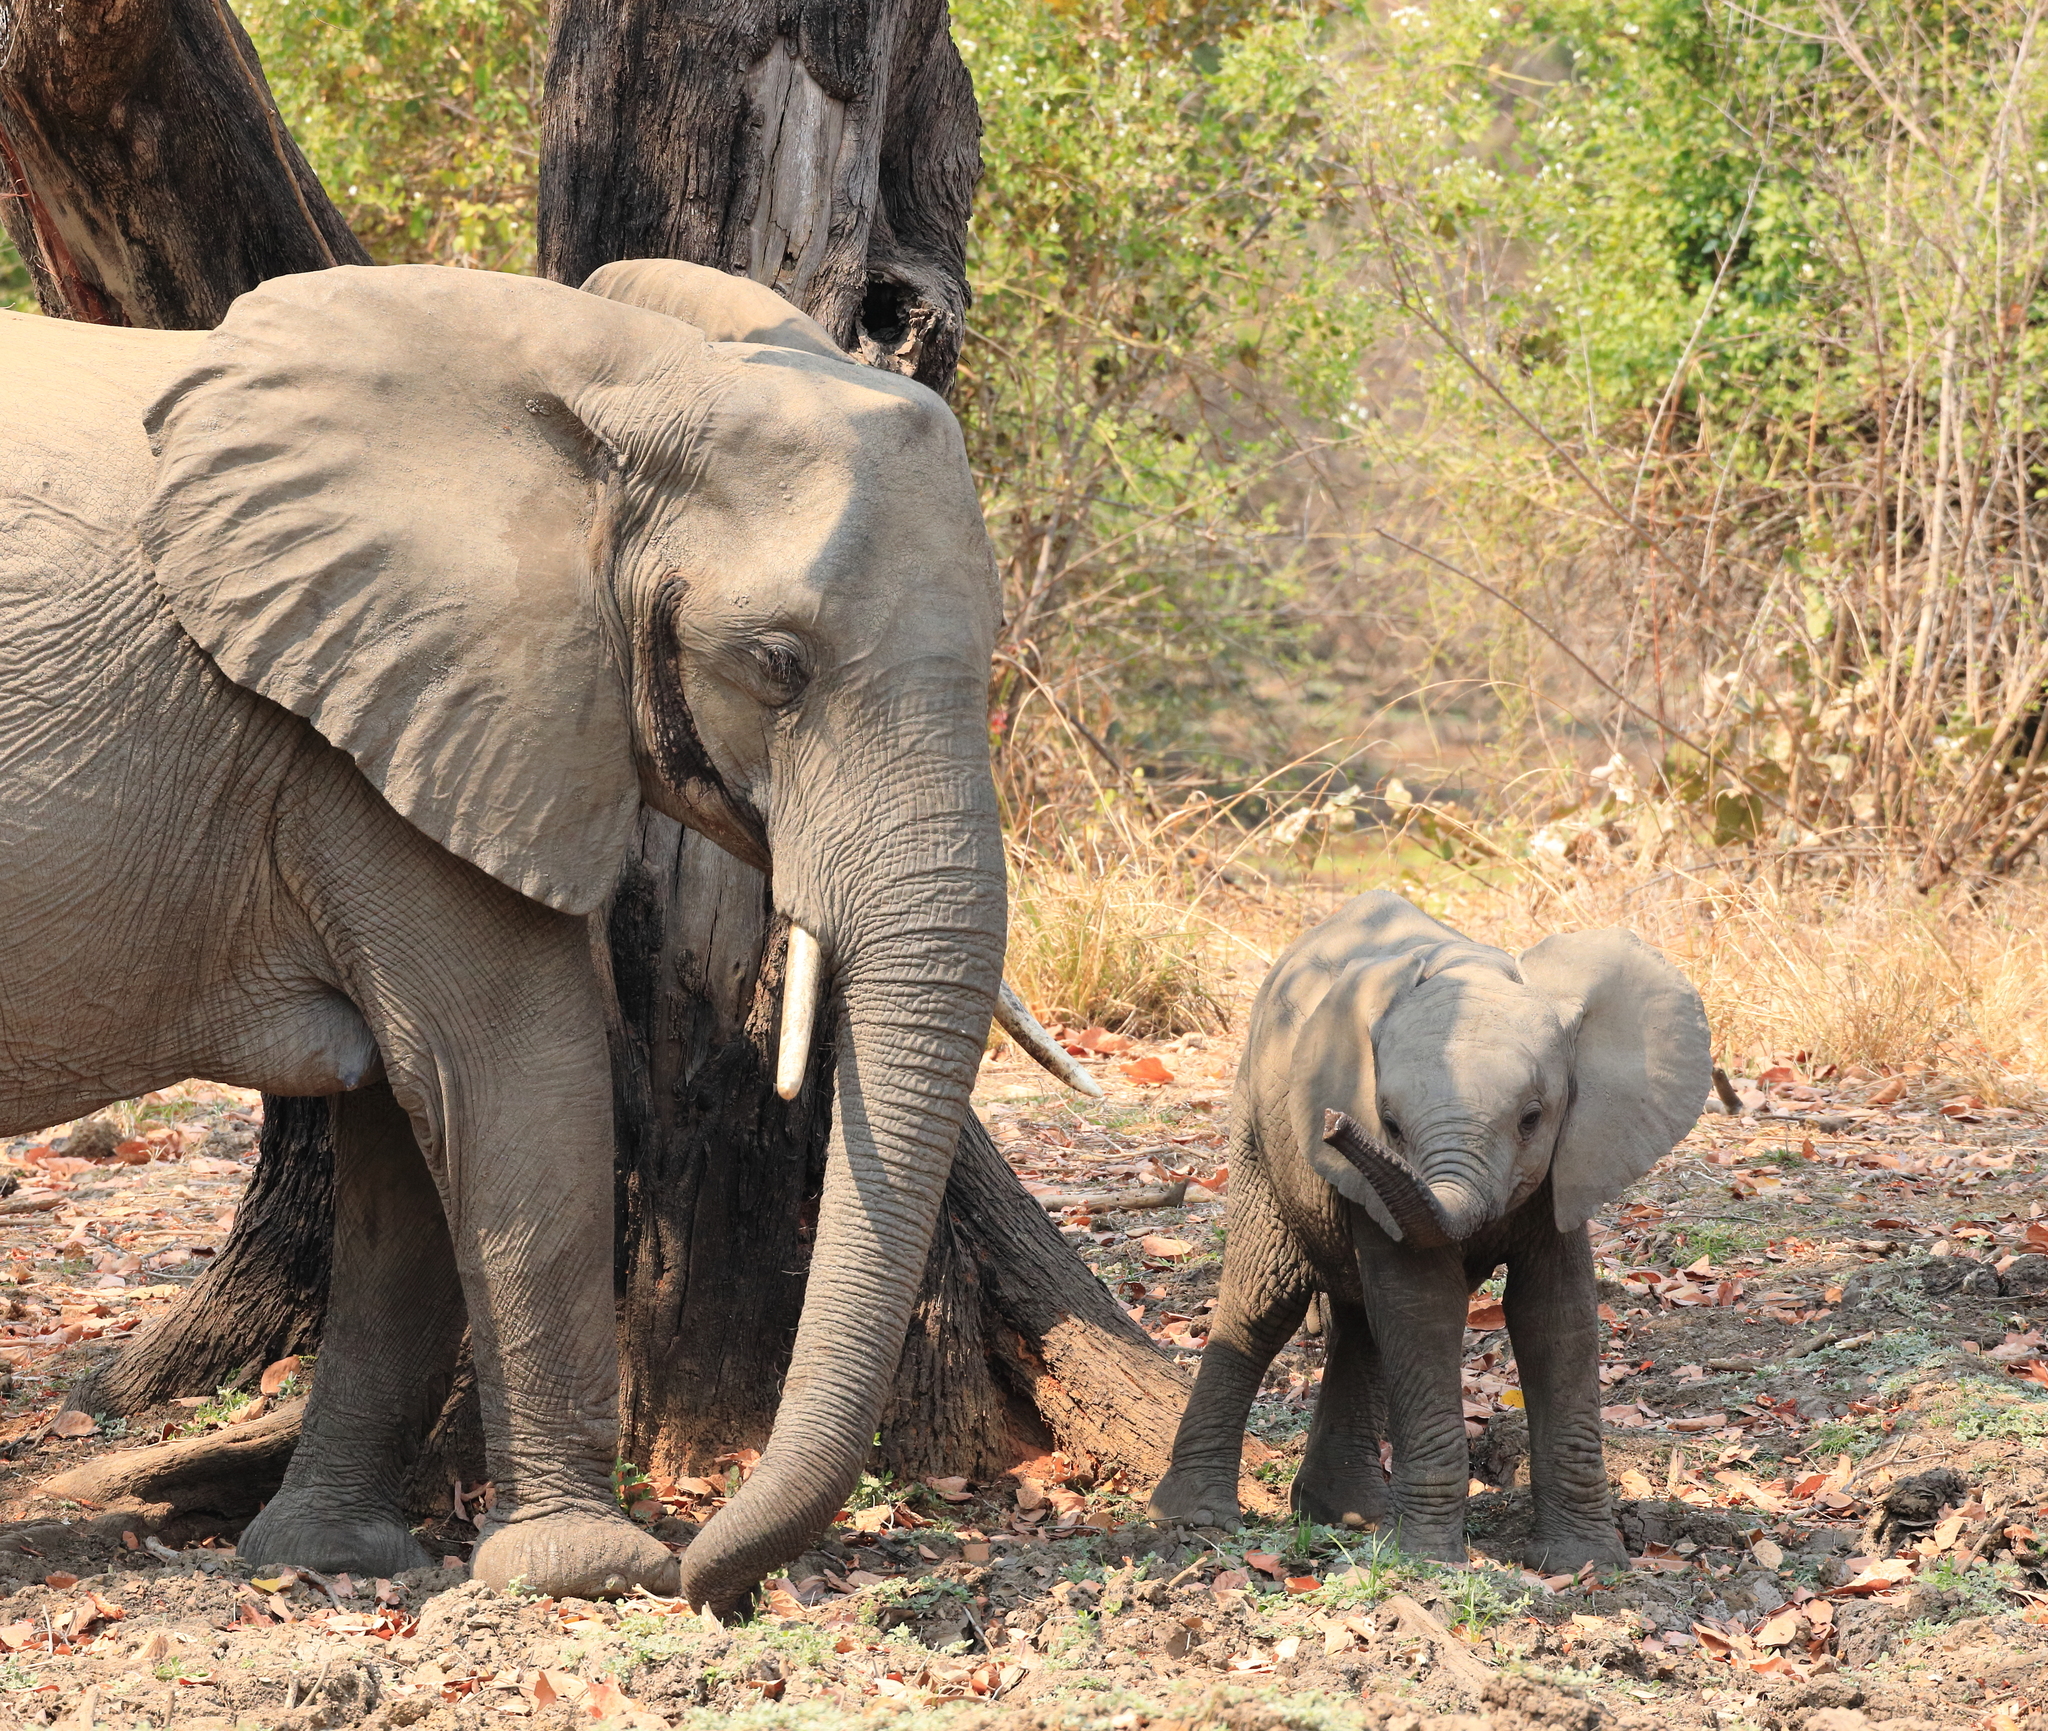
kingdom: Animalia
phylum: Chordata
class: Mammalia
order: Proboscidea
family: Elephantidae
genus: Loxodonta
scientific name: Loxodonta africana
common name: African elephant
